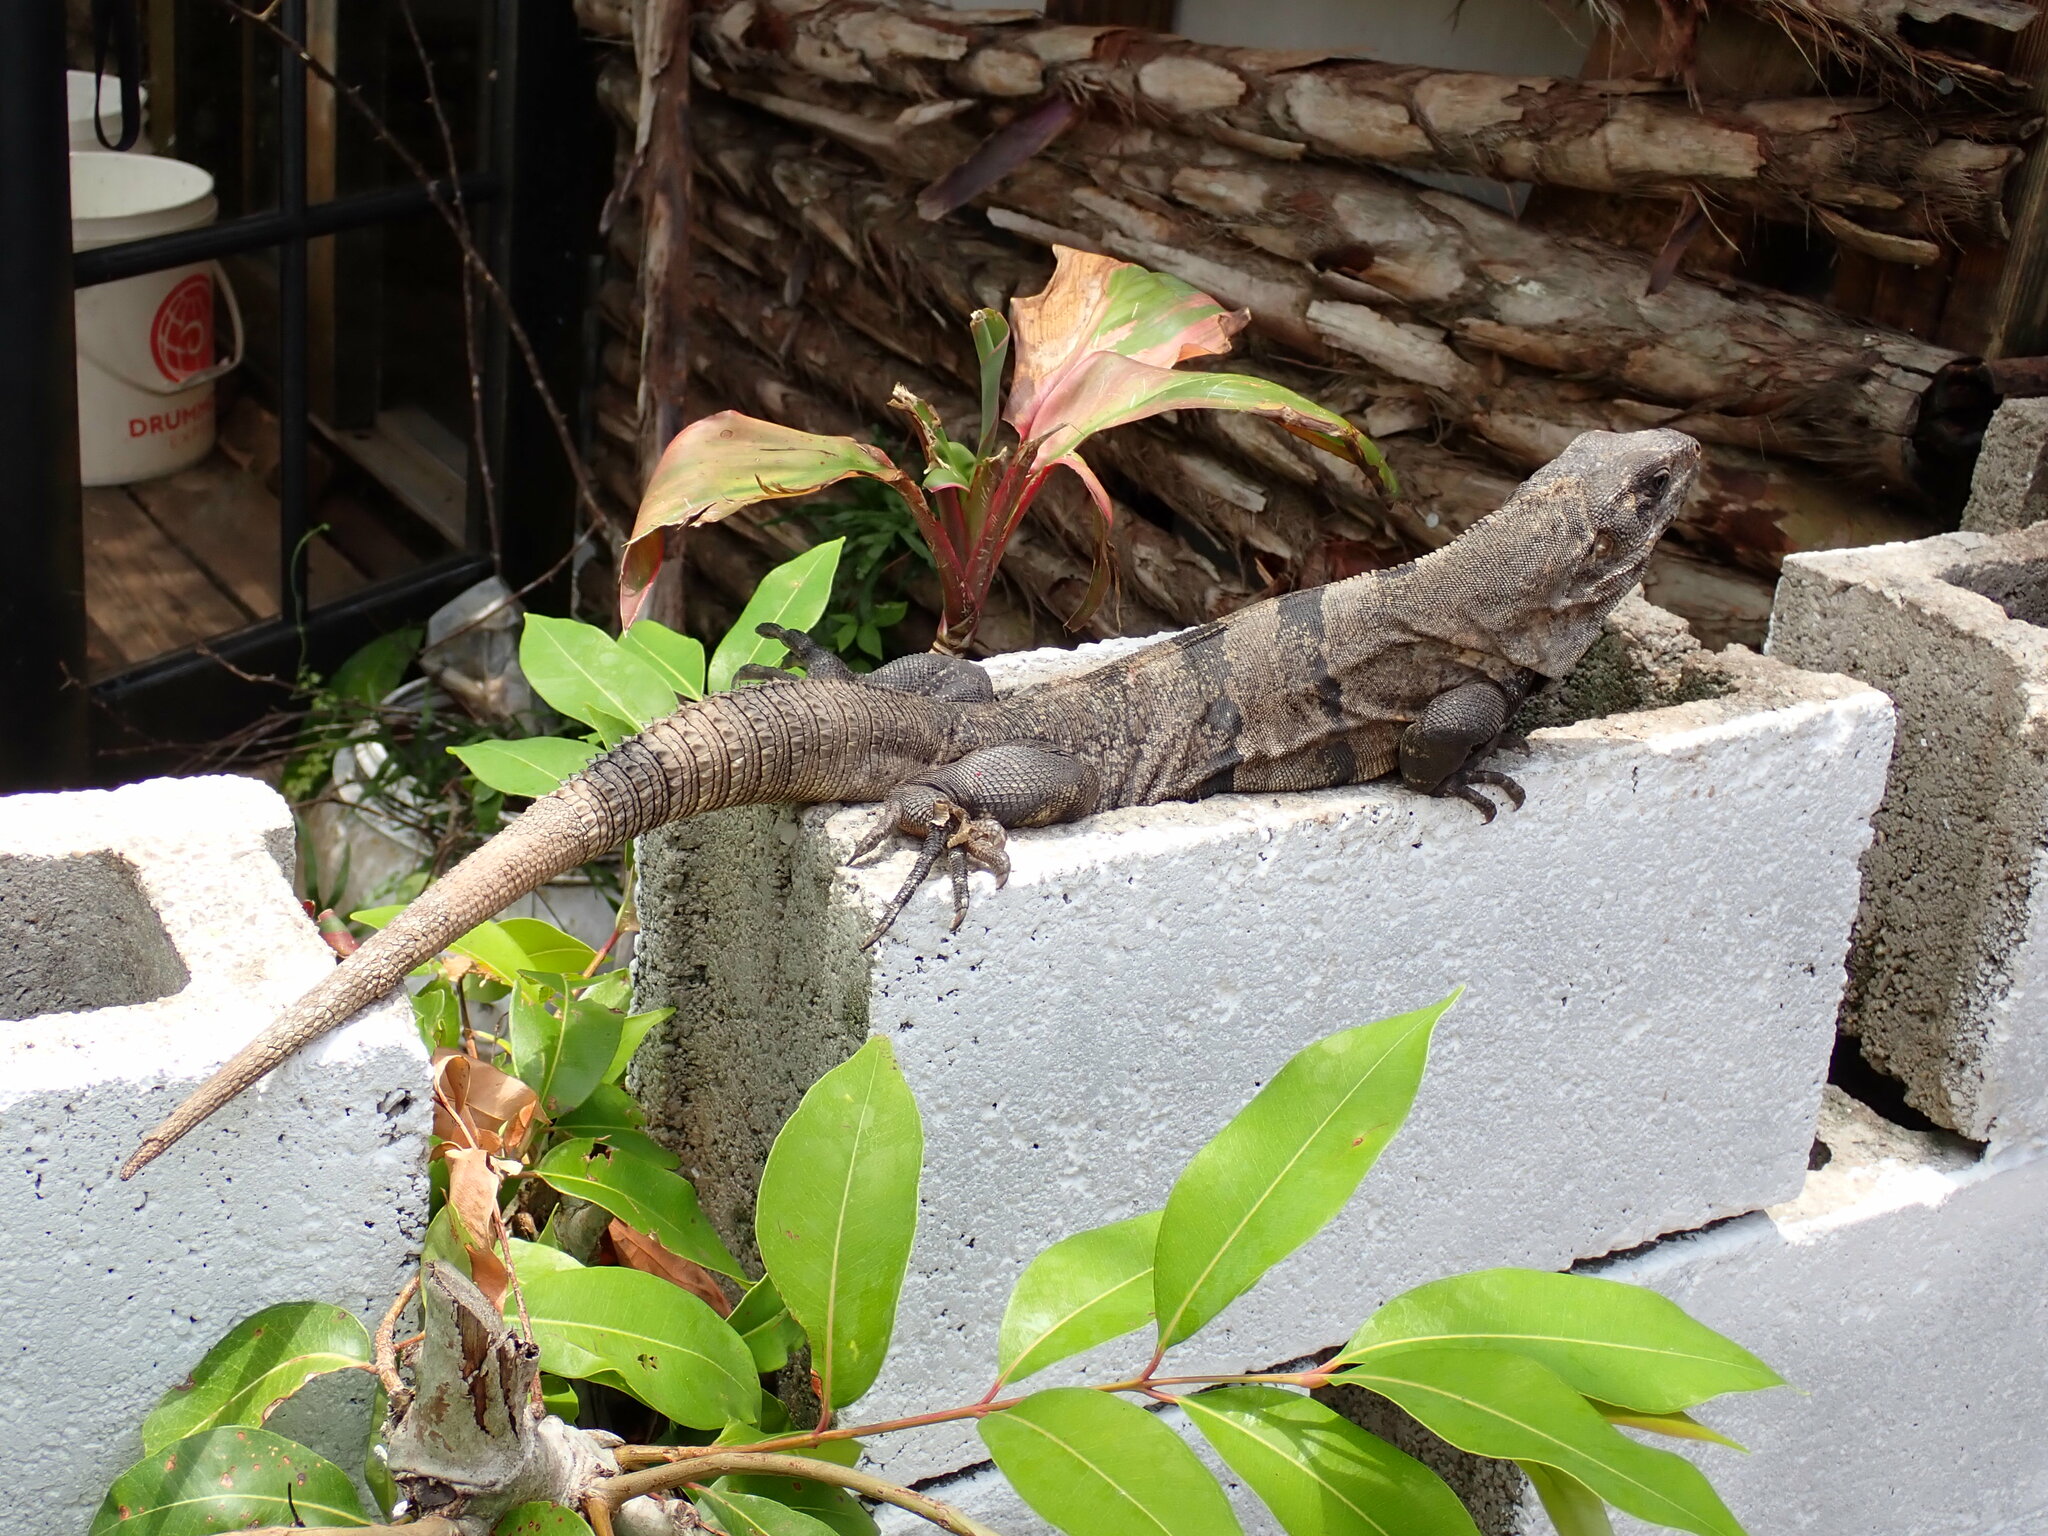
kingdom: Animalia
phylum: Chordata
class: Squamata
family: Iguanidae
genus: Ctenosaura
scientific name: Ctenosaura similis
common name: Black spiny-tailed iguana
